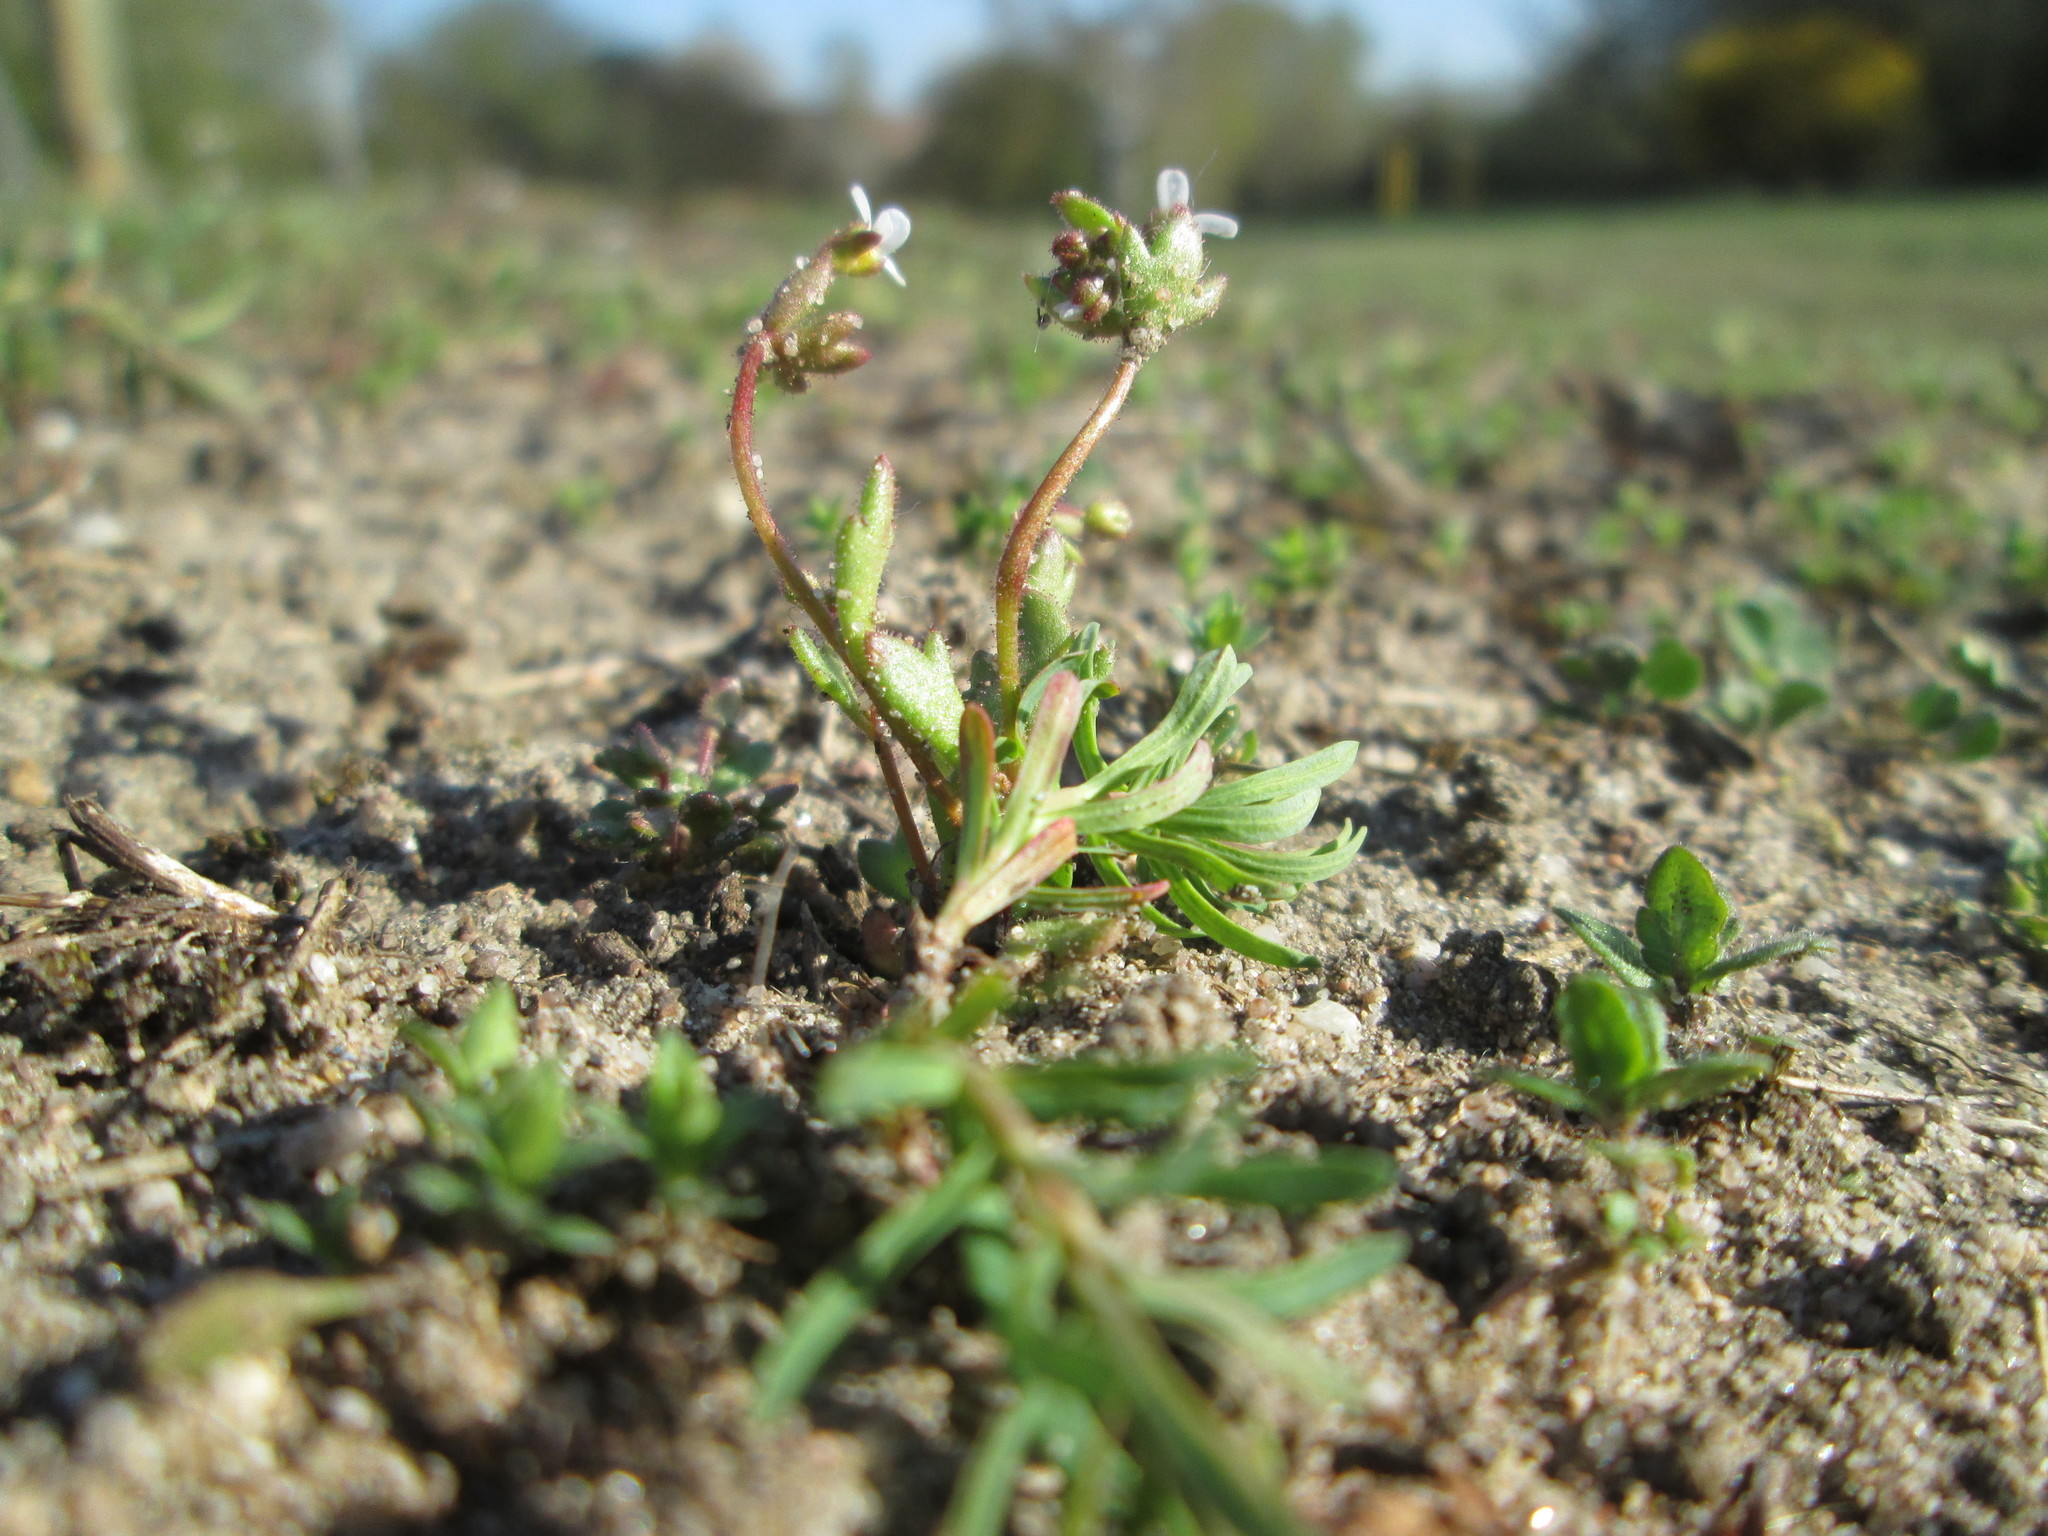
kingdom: Plantae
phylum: Tracheophyta
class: Magnoliopsida
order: Saxifragales
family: Saxifragaceae
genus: Saxifraga
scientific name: Saxifraga tridactylites
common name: Rue-leaved saxifrage
